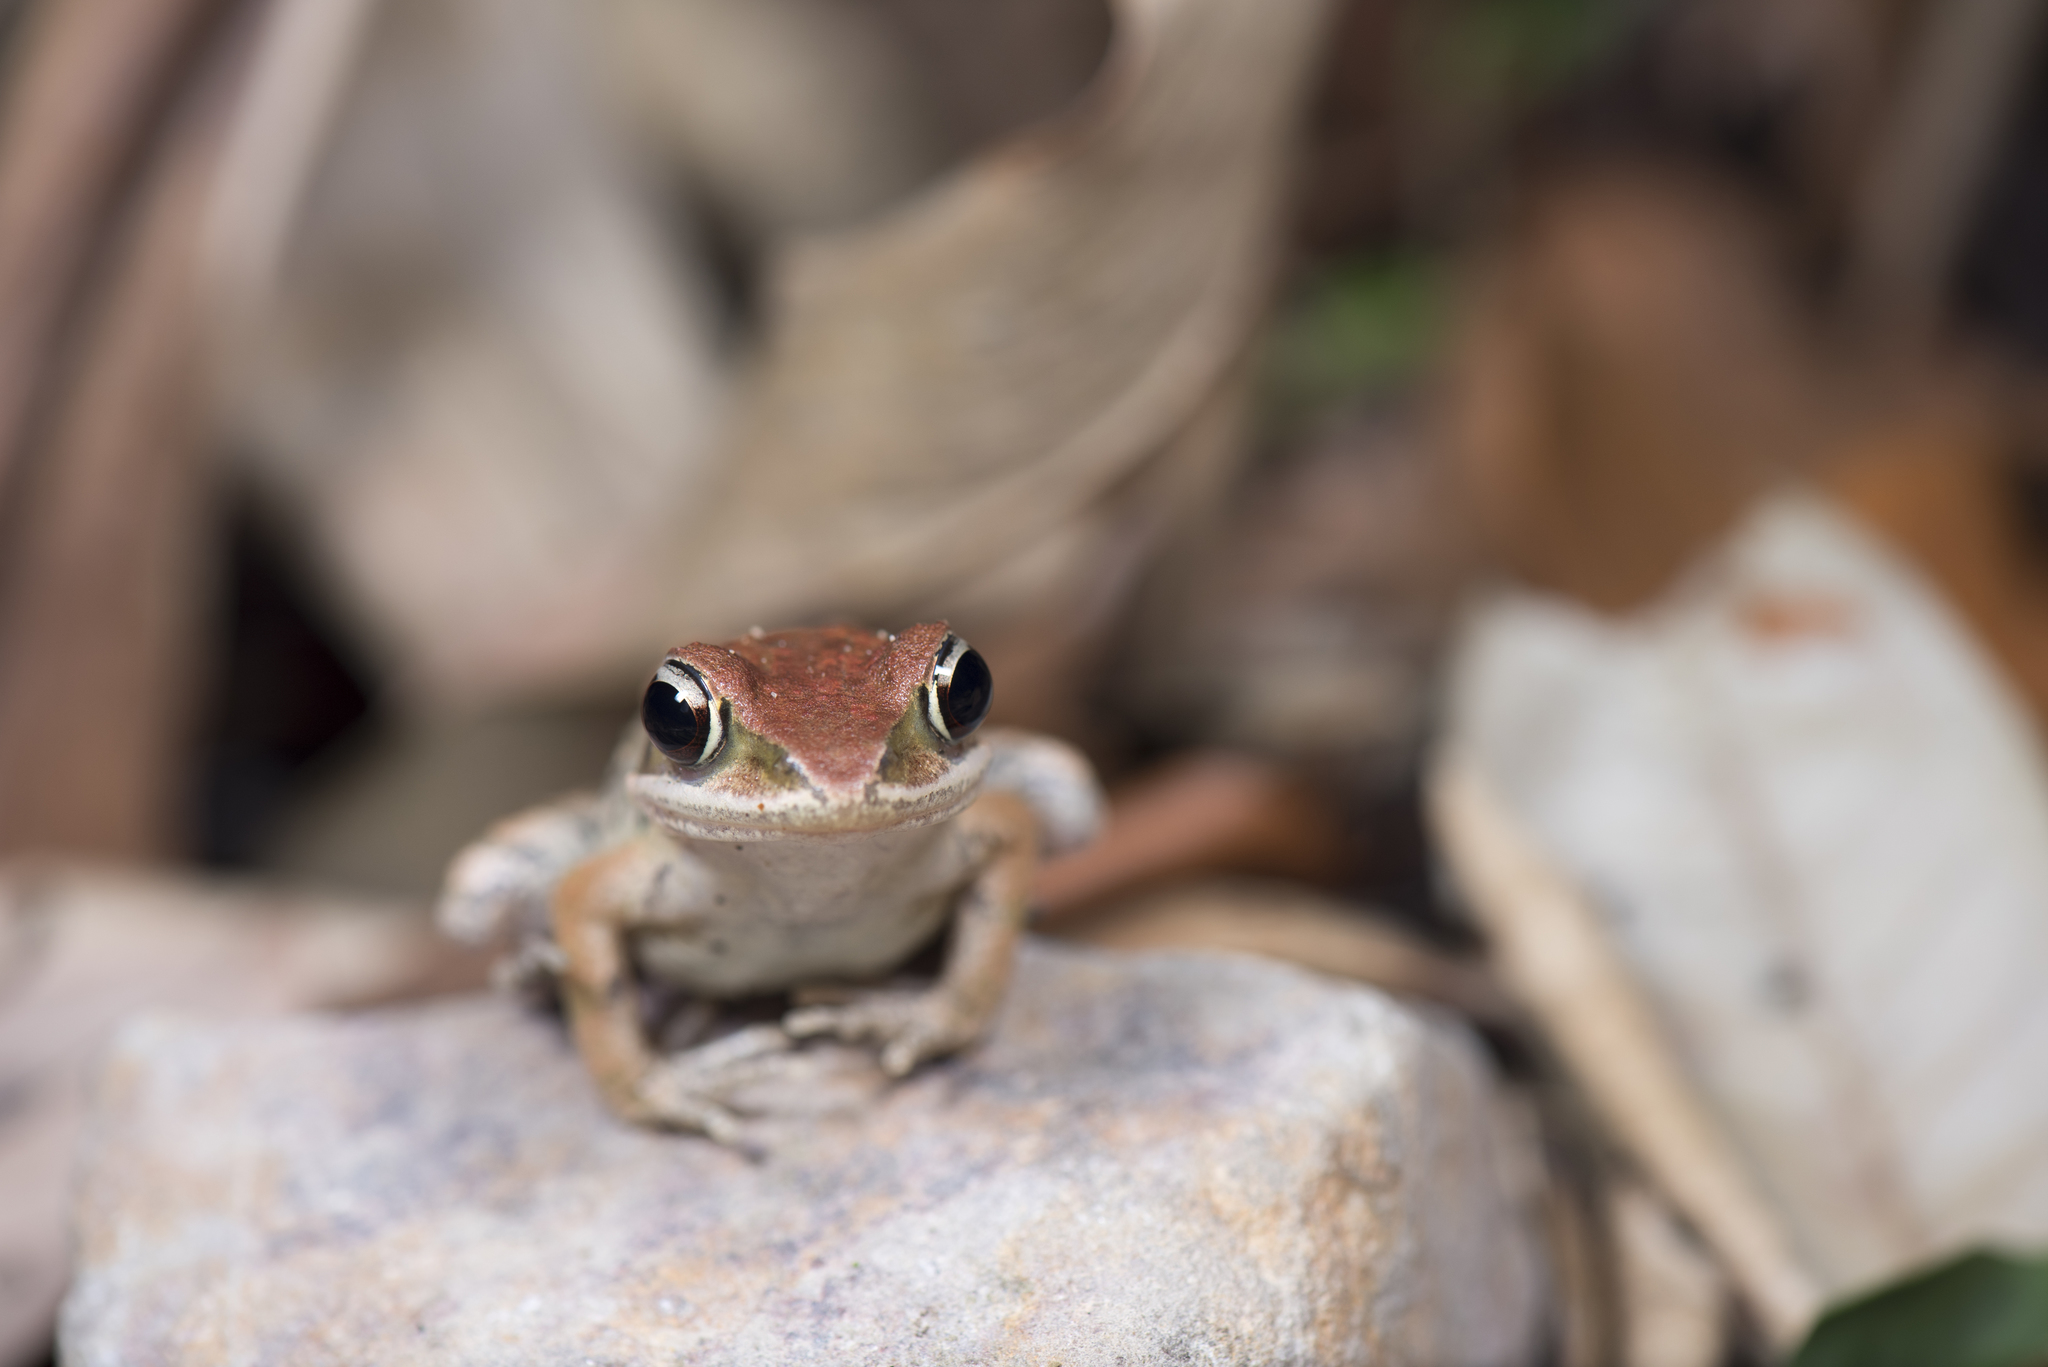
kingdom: Animalia
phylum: Chordata
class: Amphibia
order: Anura
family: Ranidae
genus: Hylarana
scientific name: Hylarana latouchii
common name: Broad-folded frog
